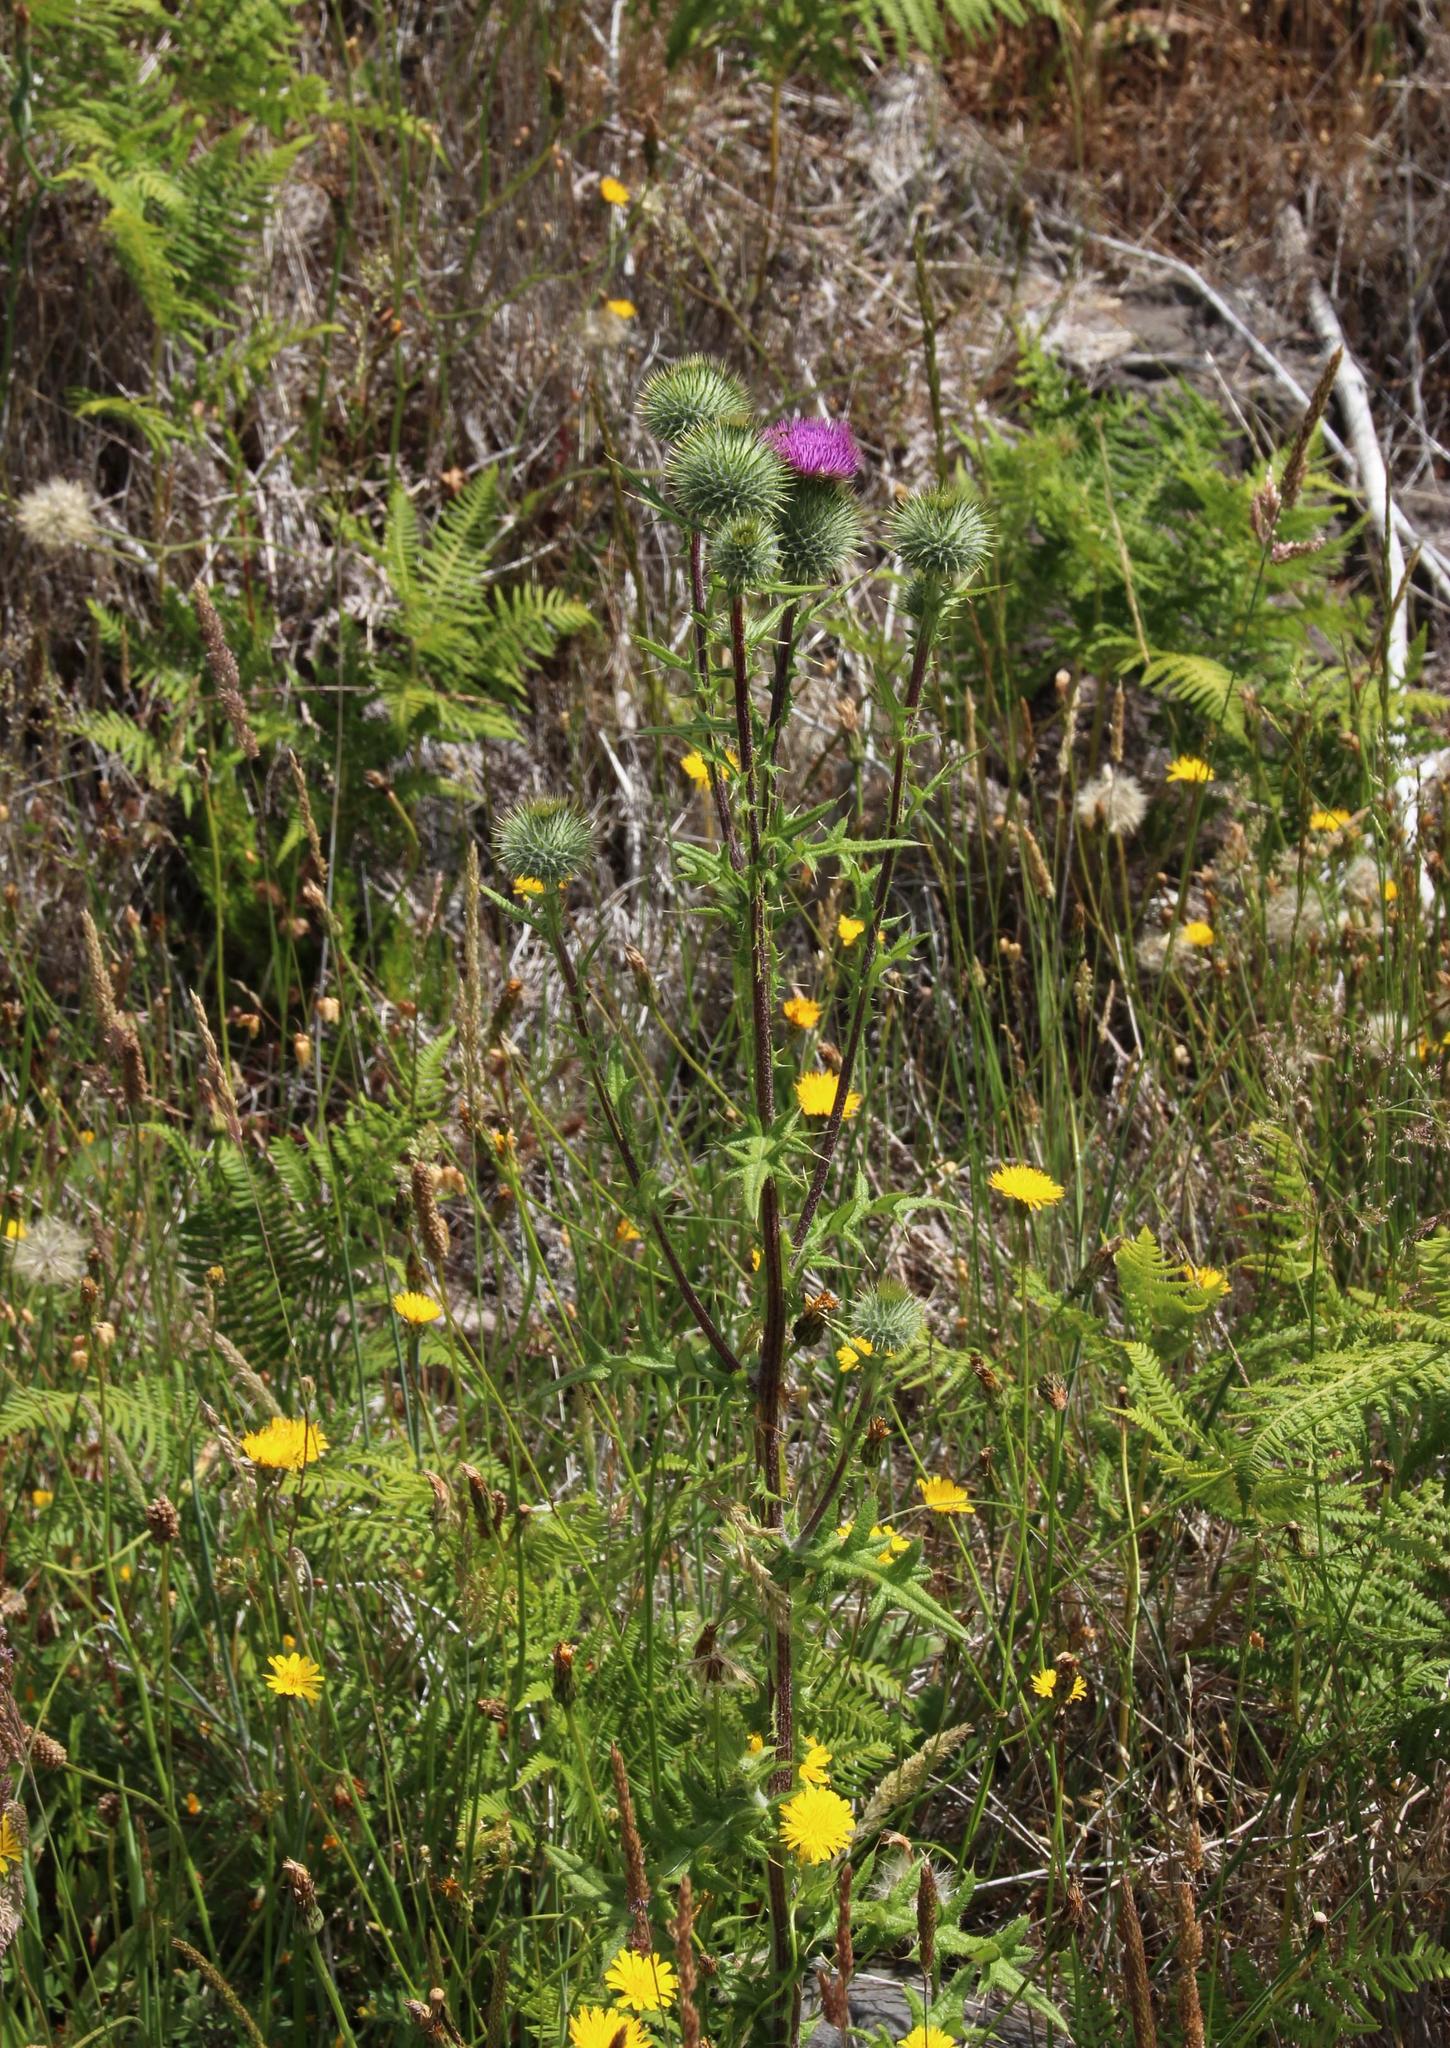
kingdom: Plantae
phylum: Tracheophyta
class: Magnoliopsida
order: Asterales
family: Asteraceae
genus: Cirsium
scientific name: Cirsium vulgare
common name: Bull thistle
